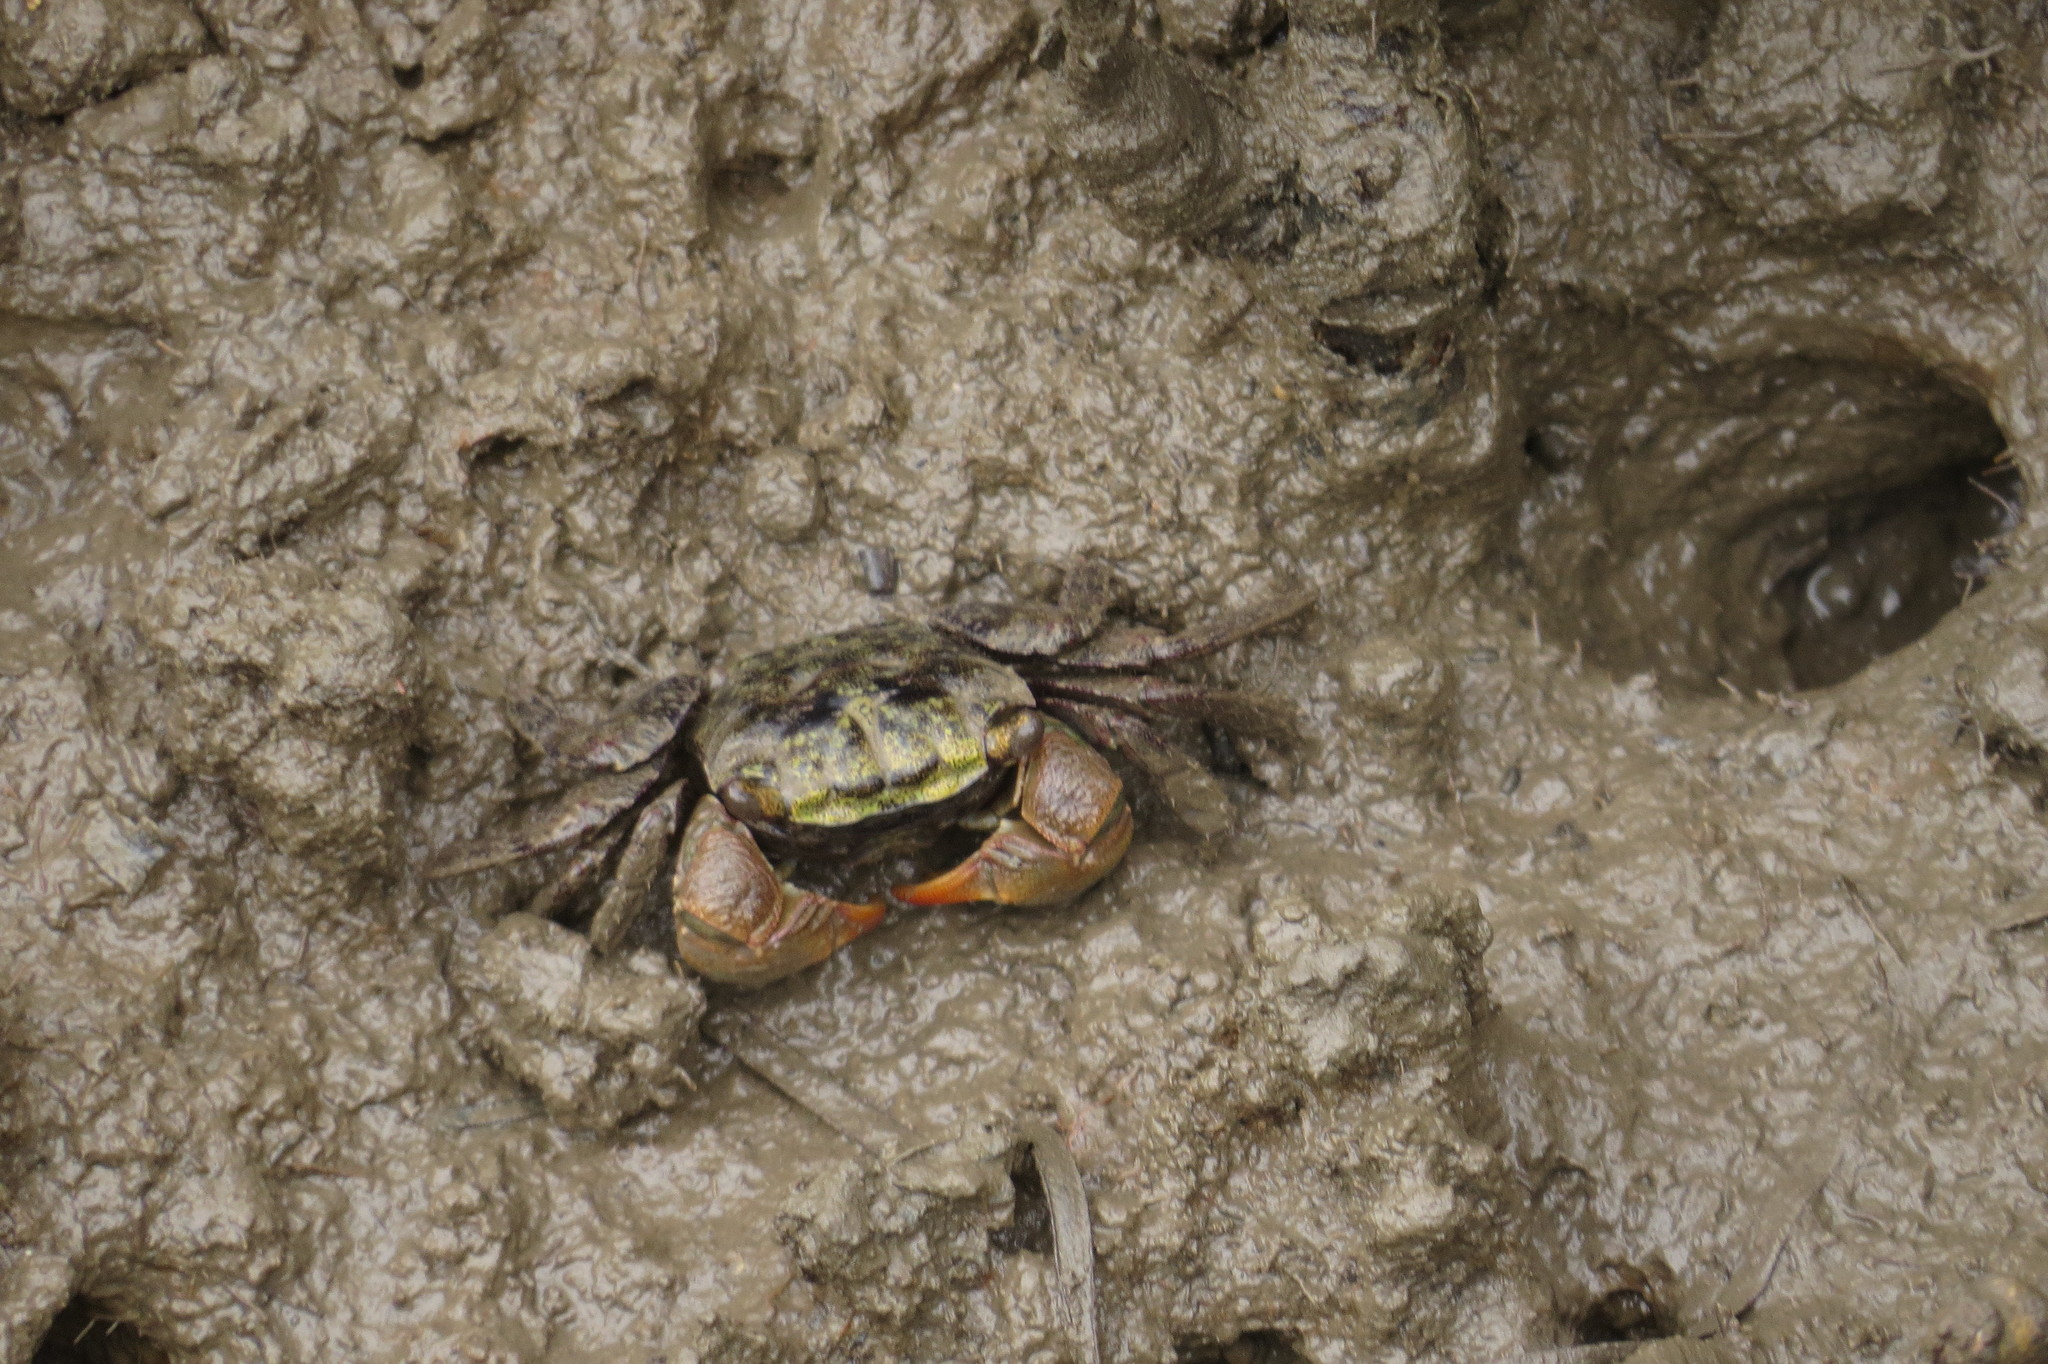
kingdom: Animalia
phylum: Arthropoda
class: Malacostraca
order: Decapoda
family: Sesarmidae
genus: Parasesarma
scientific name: Parasesarma erythodactylum
